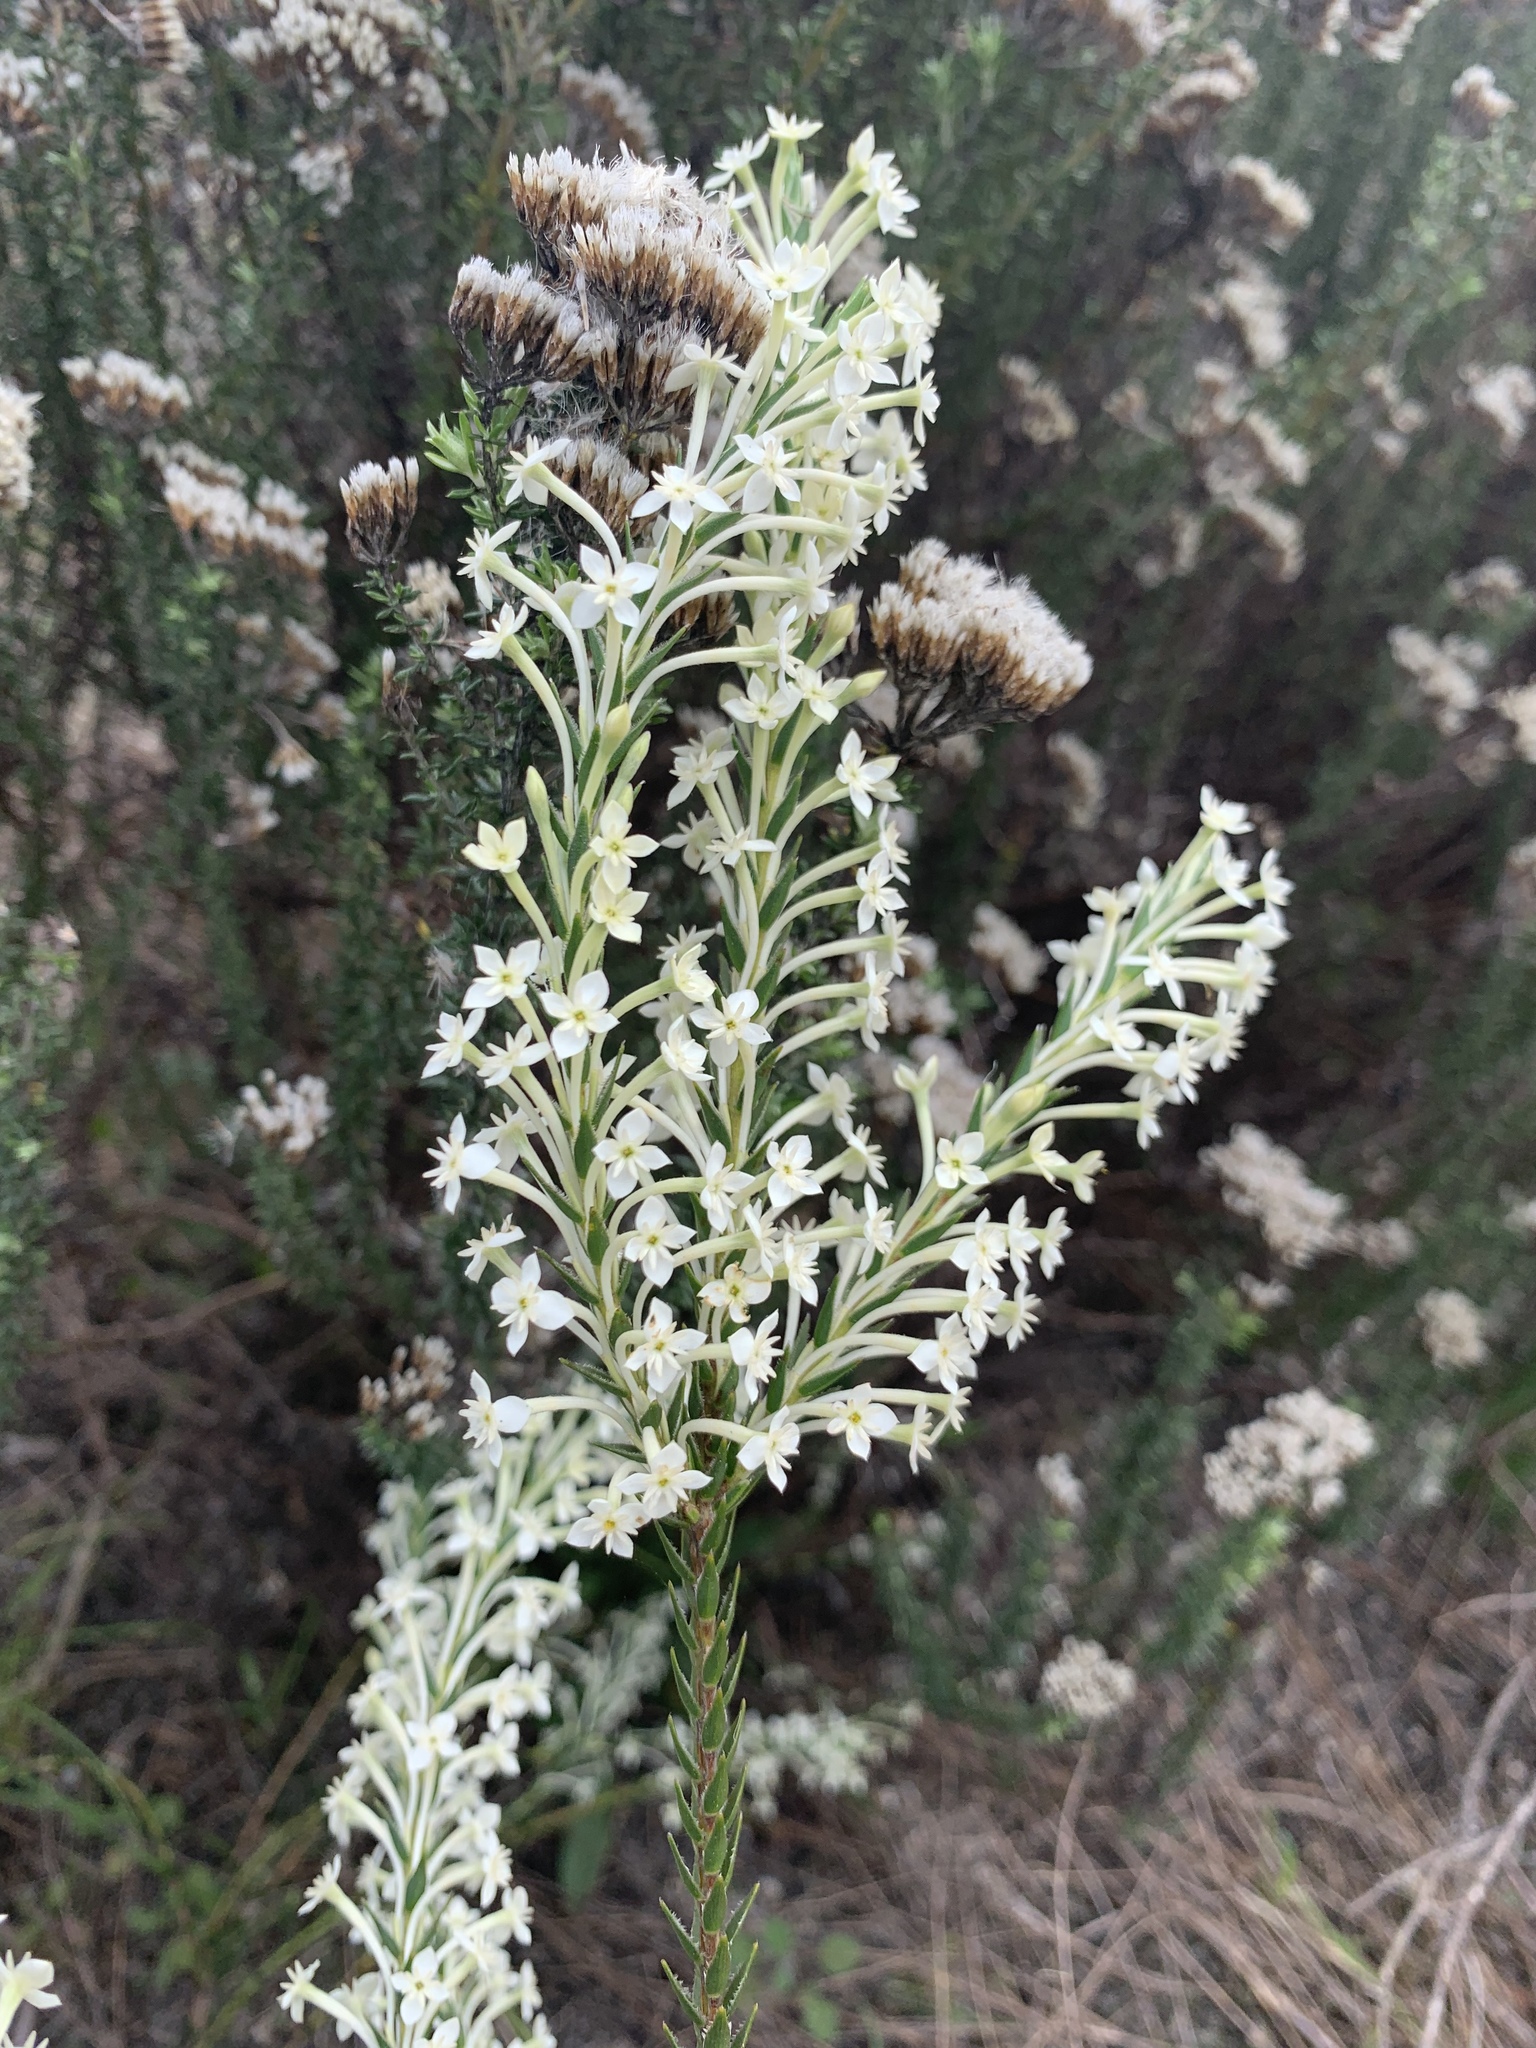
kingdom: Plantae
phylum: Tracheophyta
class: Magnoliopsida
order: Malvales
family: Thymelaeaceae
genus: Struthiola
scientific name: Struthiola myrsinites
